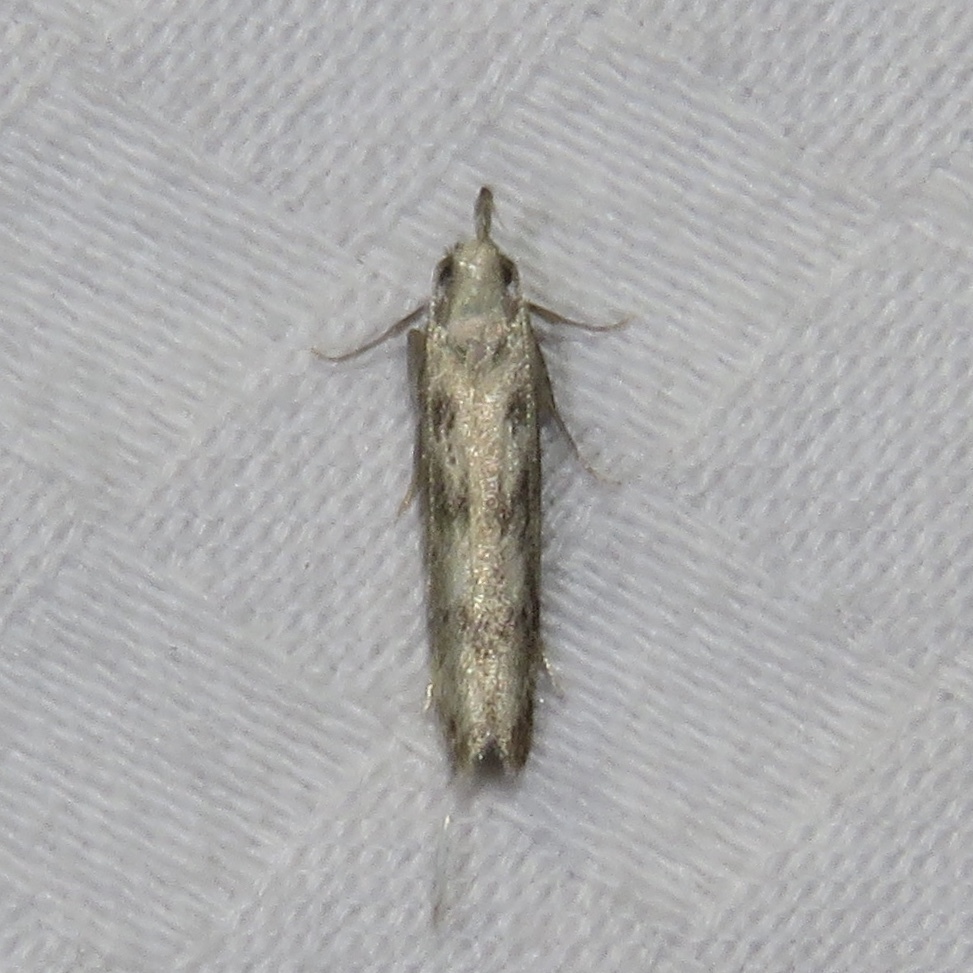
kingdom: Animalia
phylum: Arthropoda
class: Insecta
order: Lepidoptera
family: Gelechiidae
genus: Dichomeris
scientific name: Dichomeris inversella
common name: Inverse dichomeris moth
